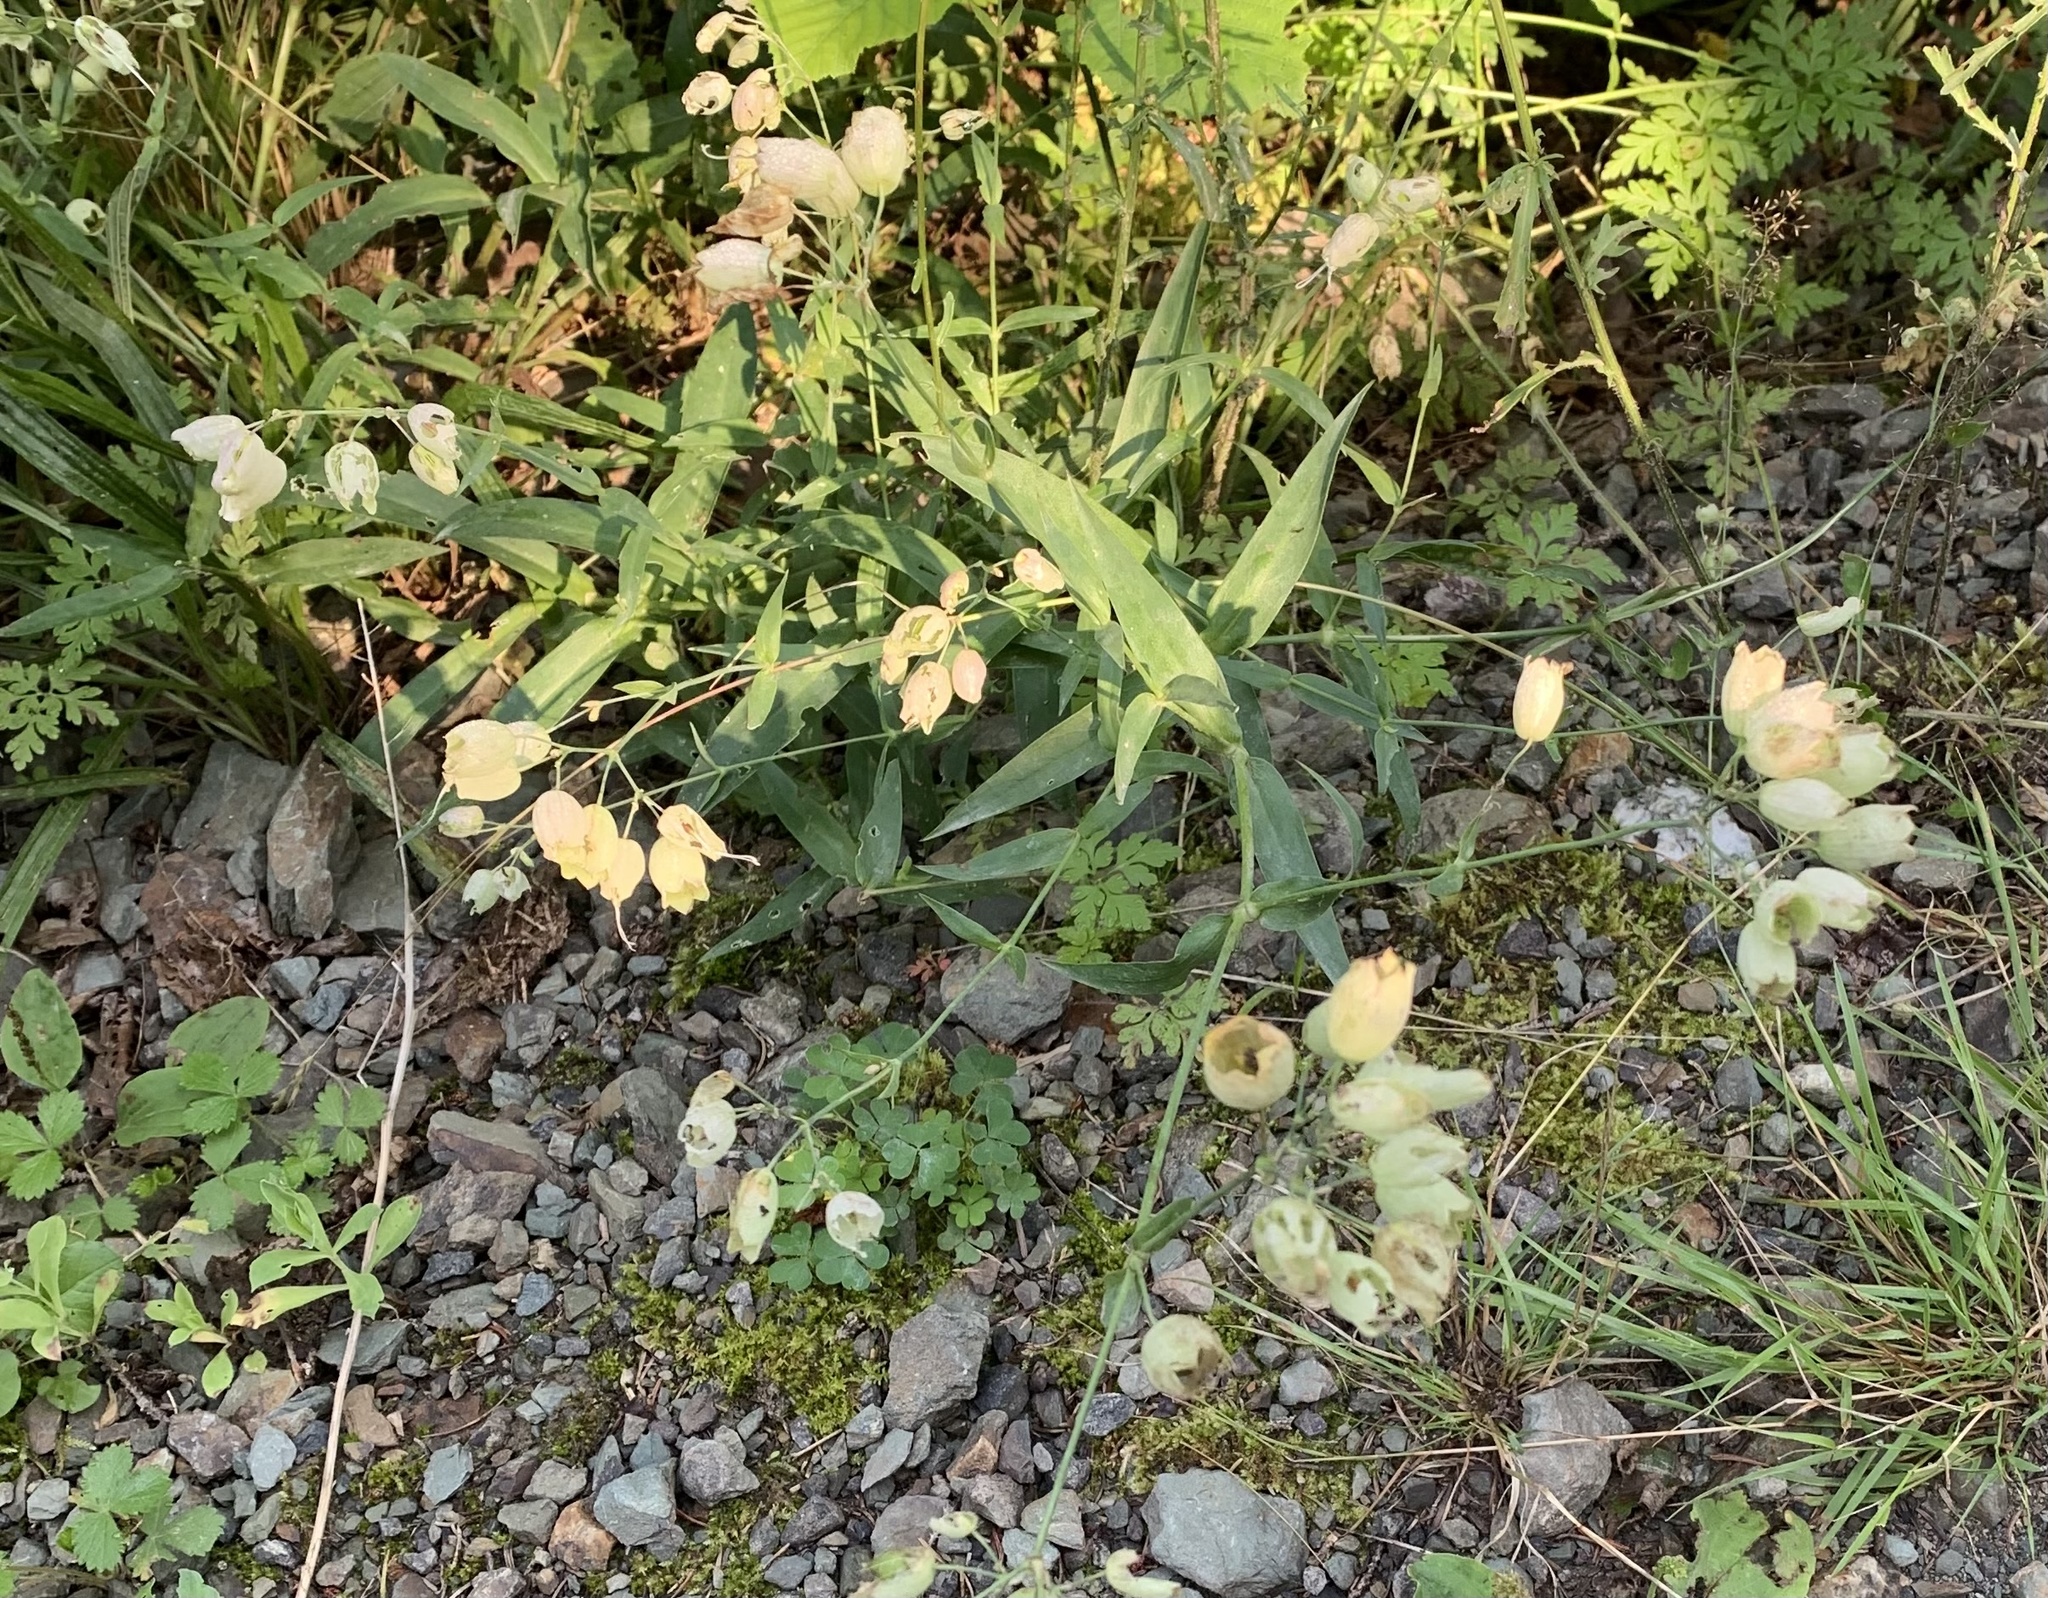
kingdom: Plantae
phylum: Tracheophyta
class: Magnoliopsida
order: Caryophyllales
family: Caryophyllaceae
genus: Silene
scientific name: Silene vulgaris
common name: Bladder campion
